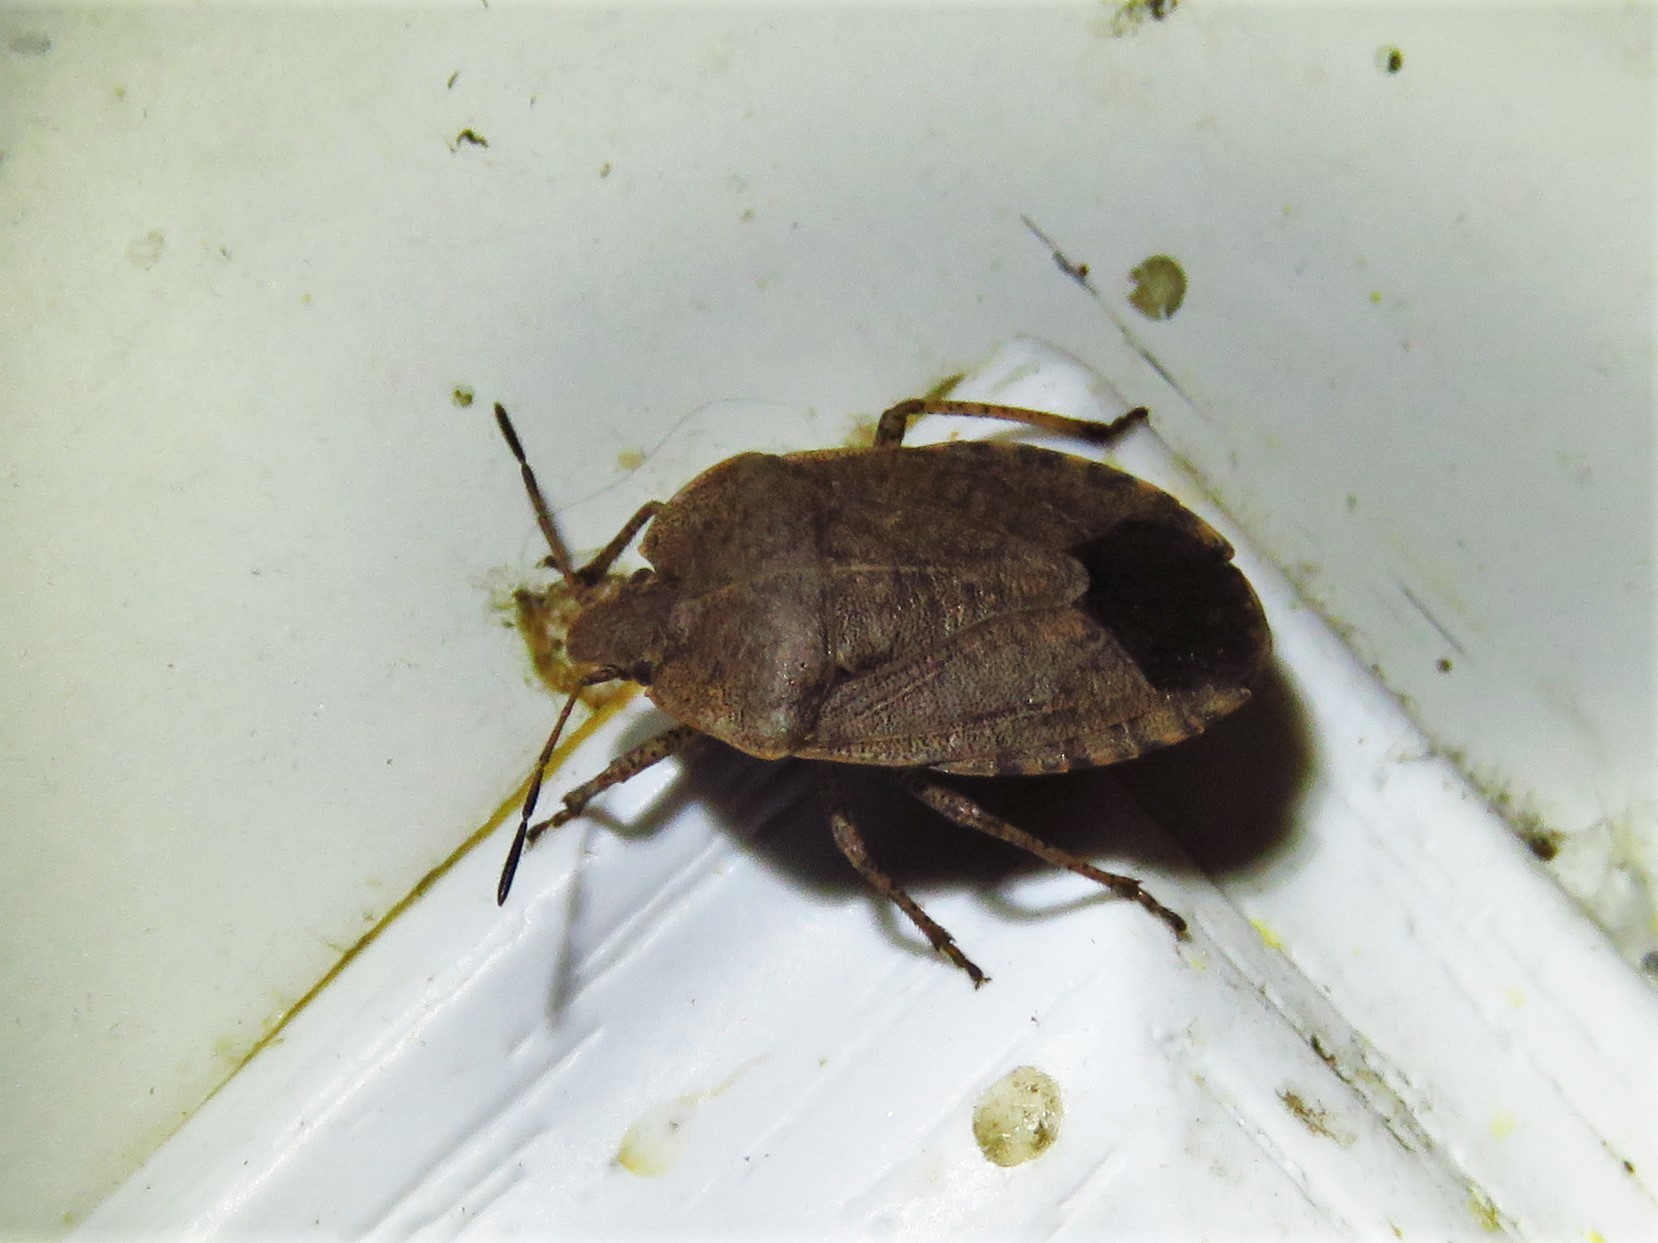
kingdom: Animalia
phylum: Arthropoda
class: Insecta
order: Hemiptera
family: Pentatomidae
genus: Menecles
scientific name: Menecles insertus
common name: Elf shoe stink bug
